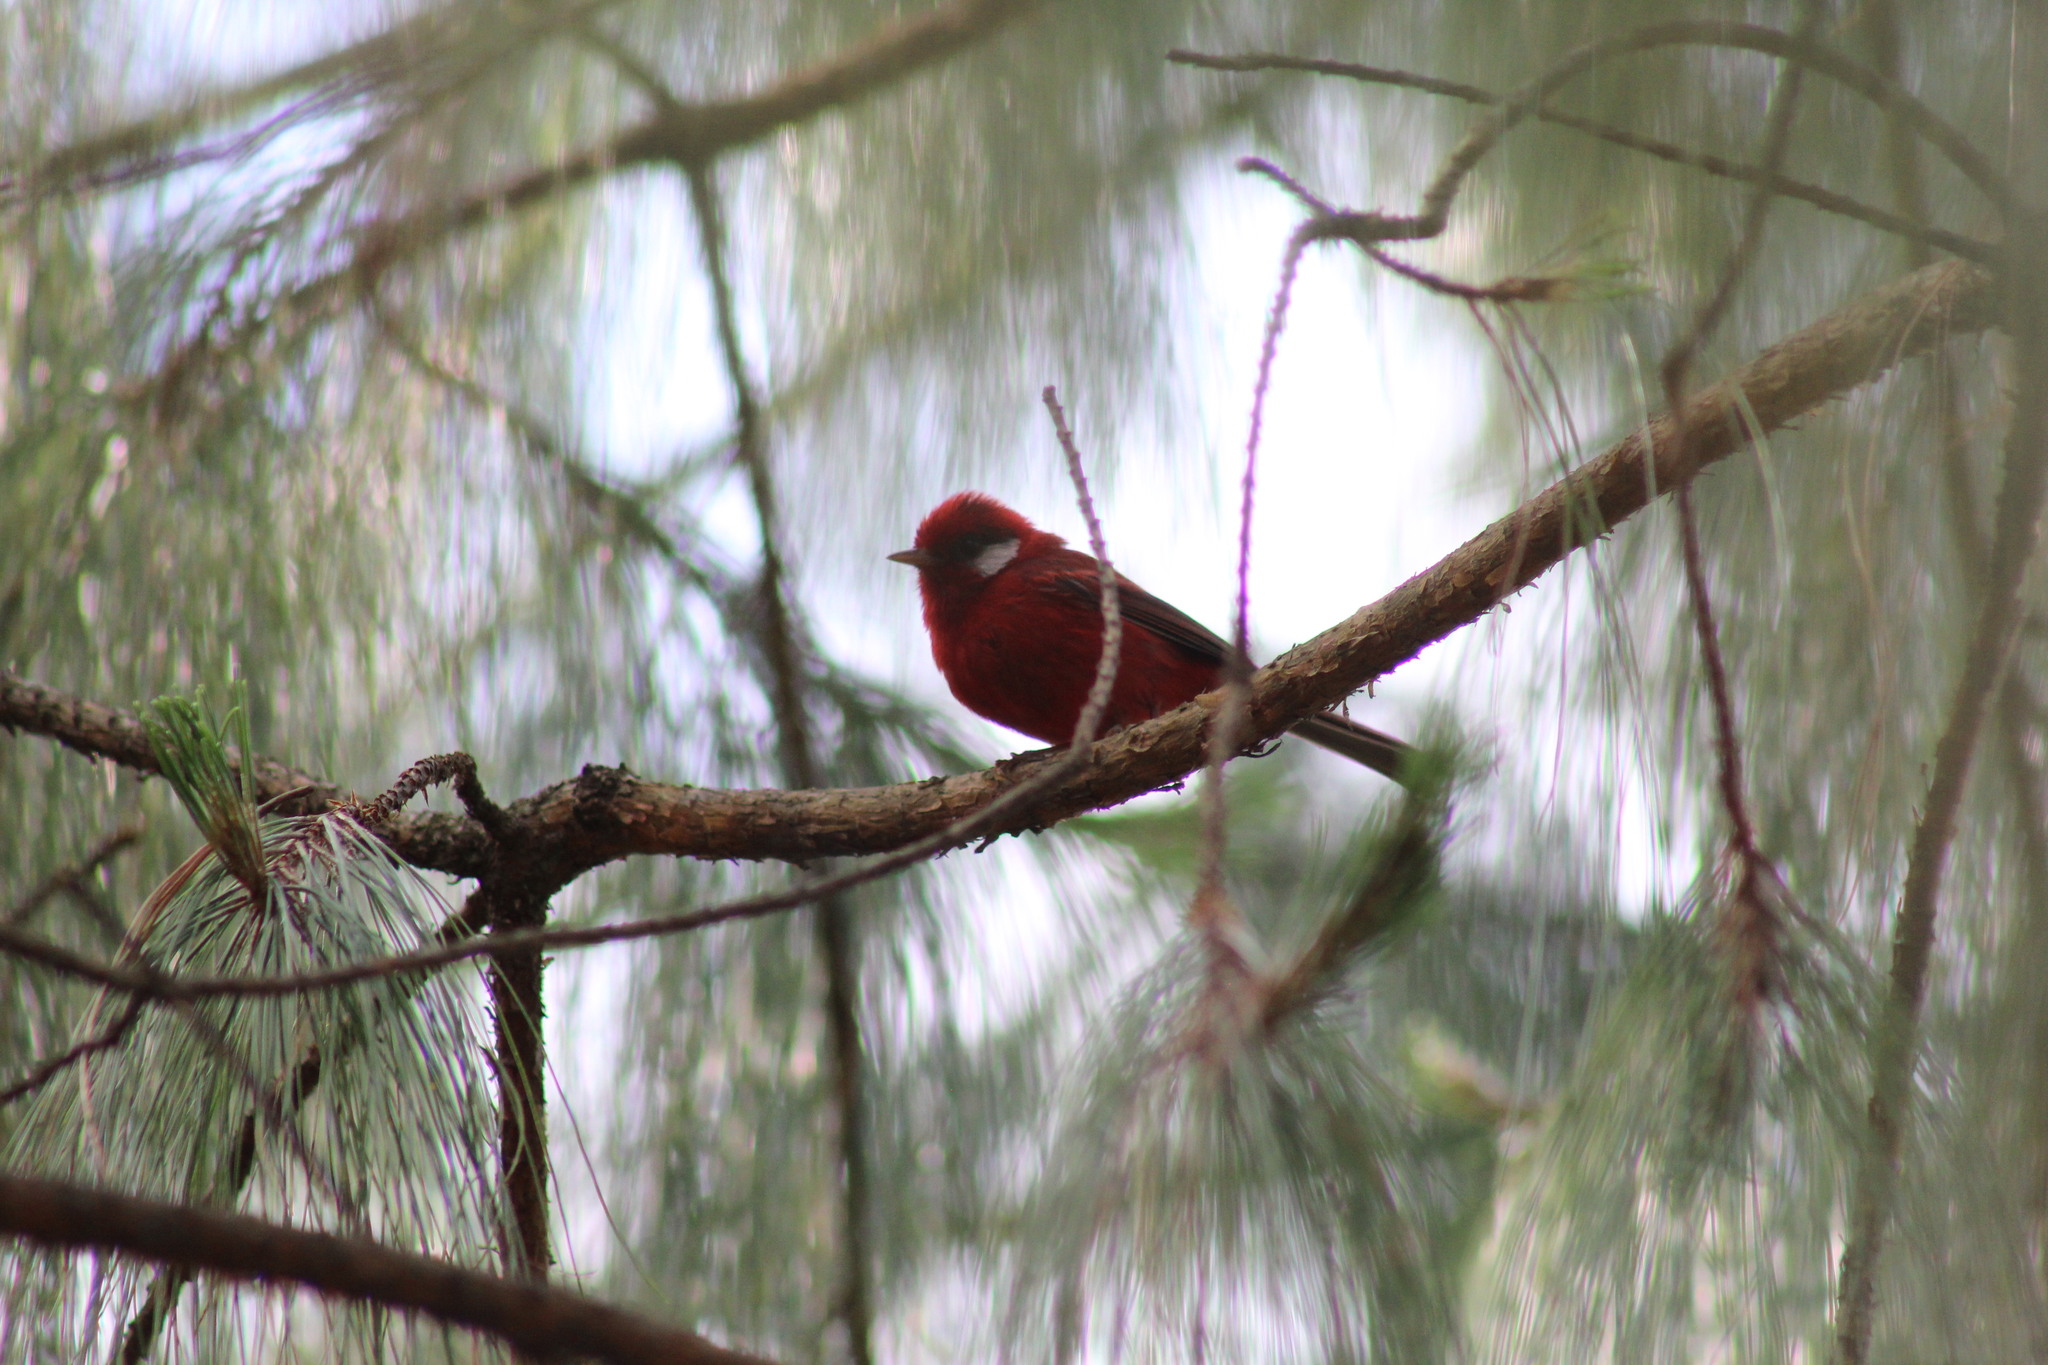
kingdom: Animalia
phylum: Chordata
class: Aves
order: Passeriformes
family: Parulidae
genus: Cardellina
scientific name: Cardellina rubra
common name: Red warbler
